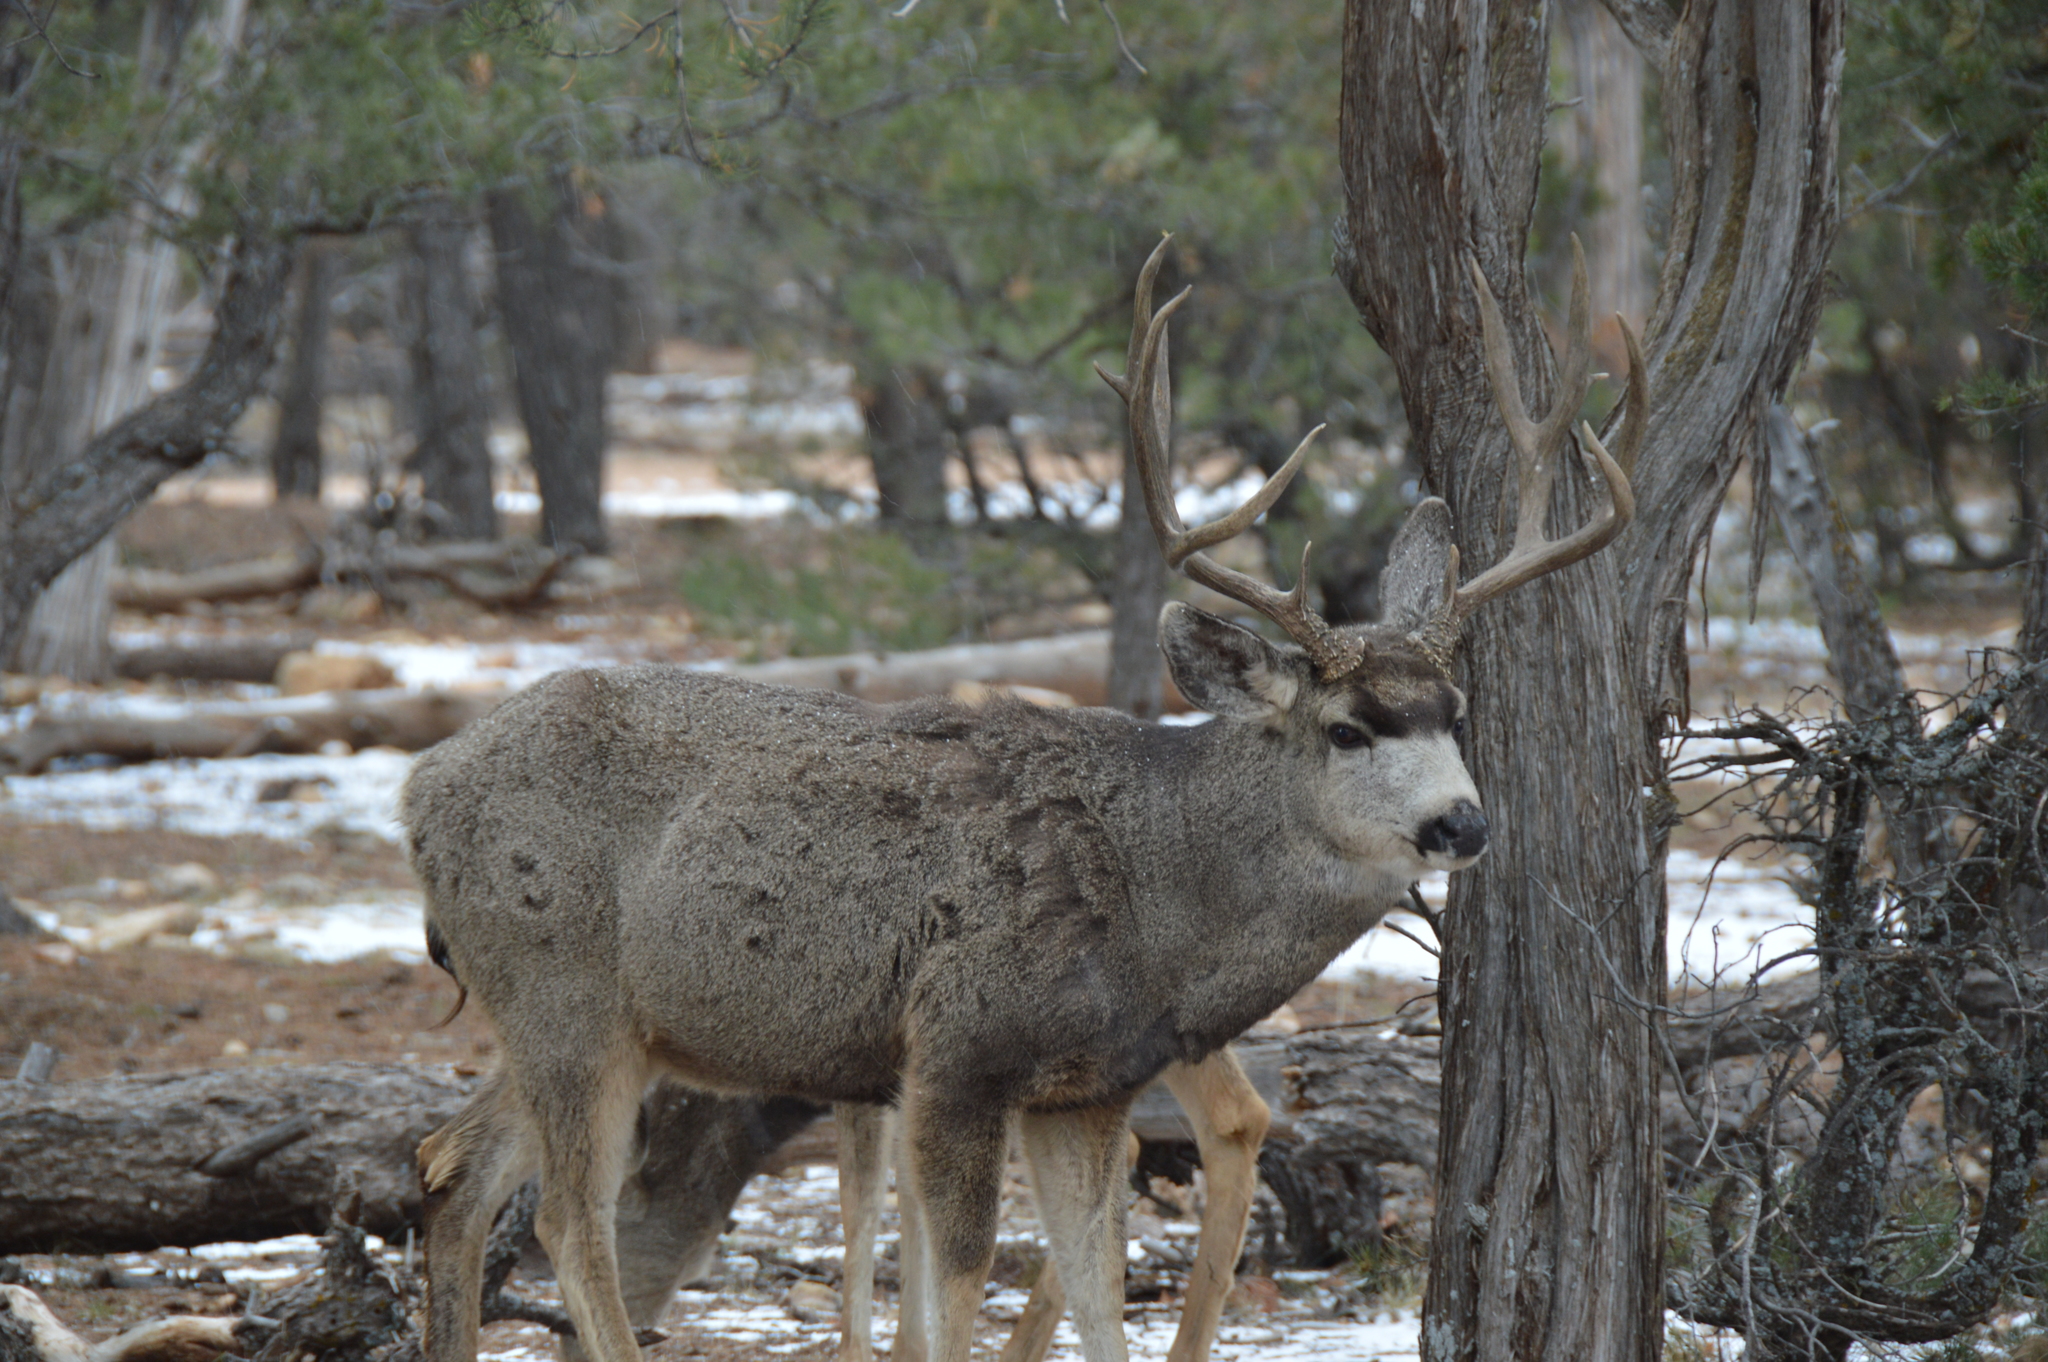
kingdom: Animalia
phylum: Chordata
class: Mammalia
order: Artiodactyla
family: Cervidae
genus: Odocoileus
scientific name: Odocoileus hemionus
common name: Mule deer
